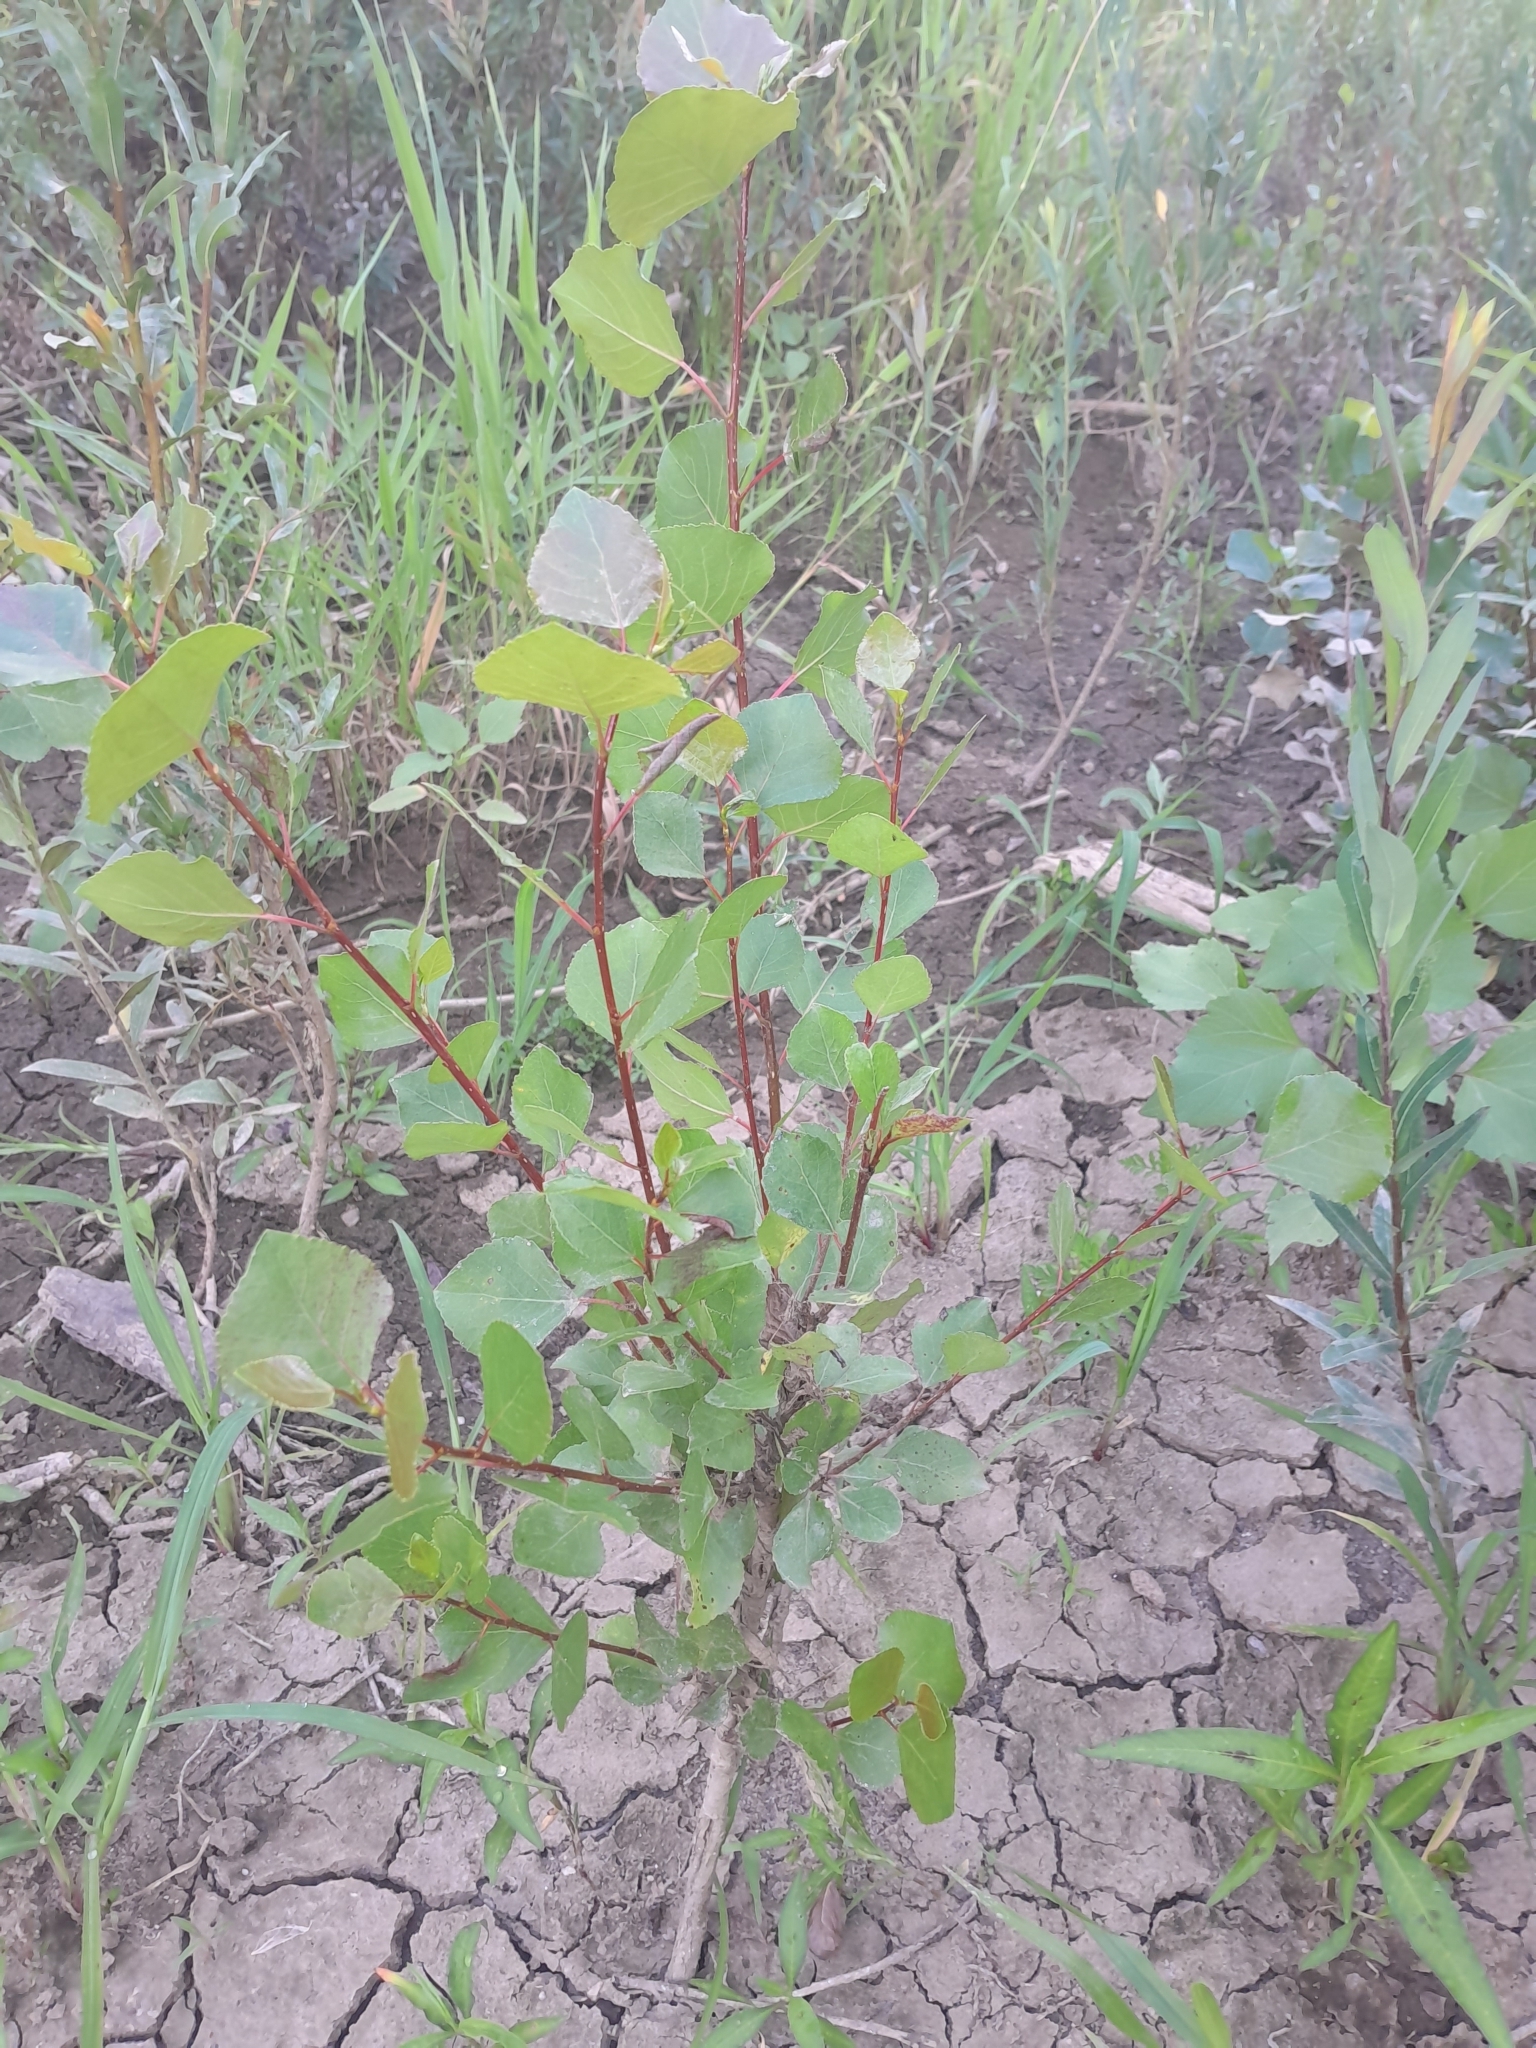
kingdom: Plantae
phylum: Tracheophyta
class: Magnoliopsida
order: Malpighiales
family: Salicaceae
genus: Populus
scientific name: Populus tremula
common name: European aspen
